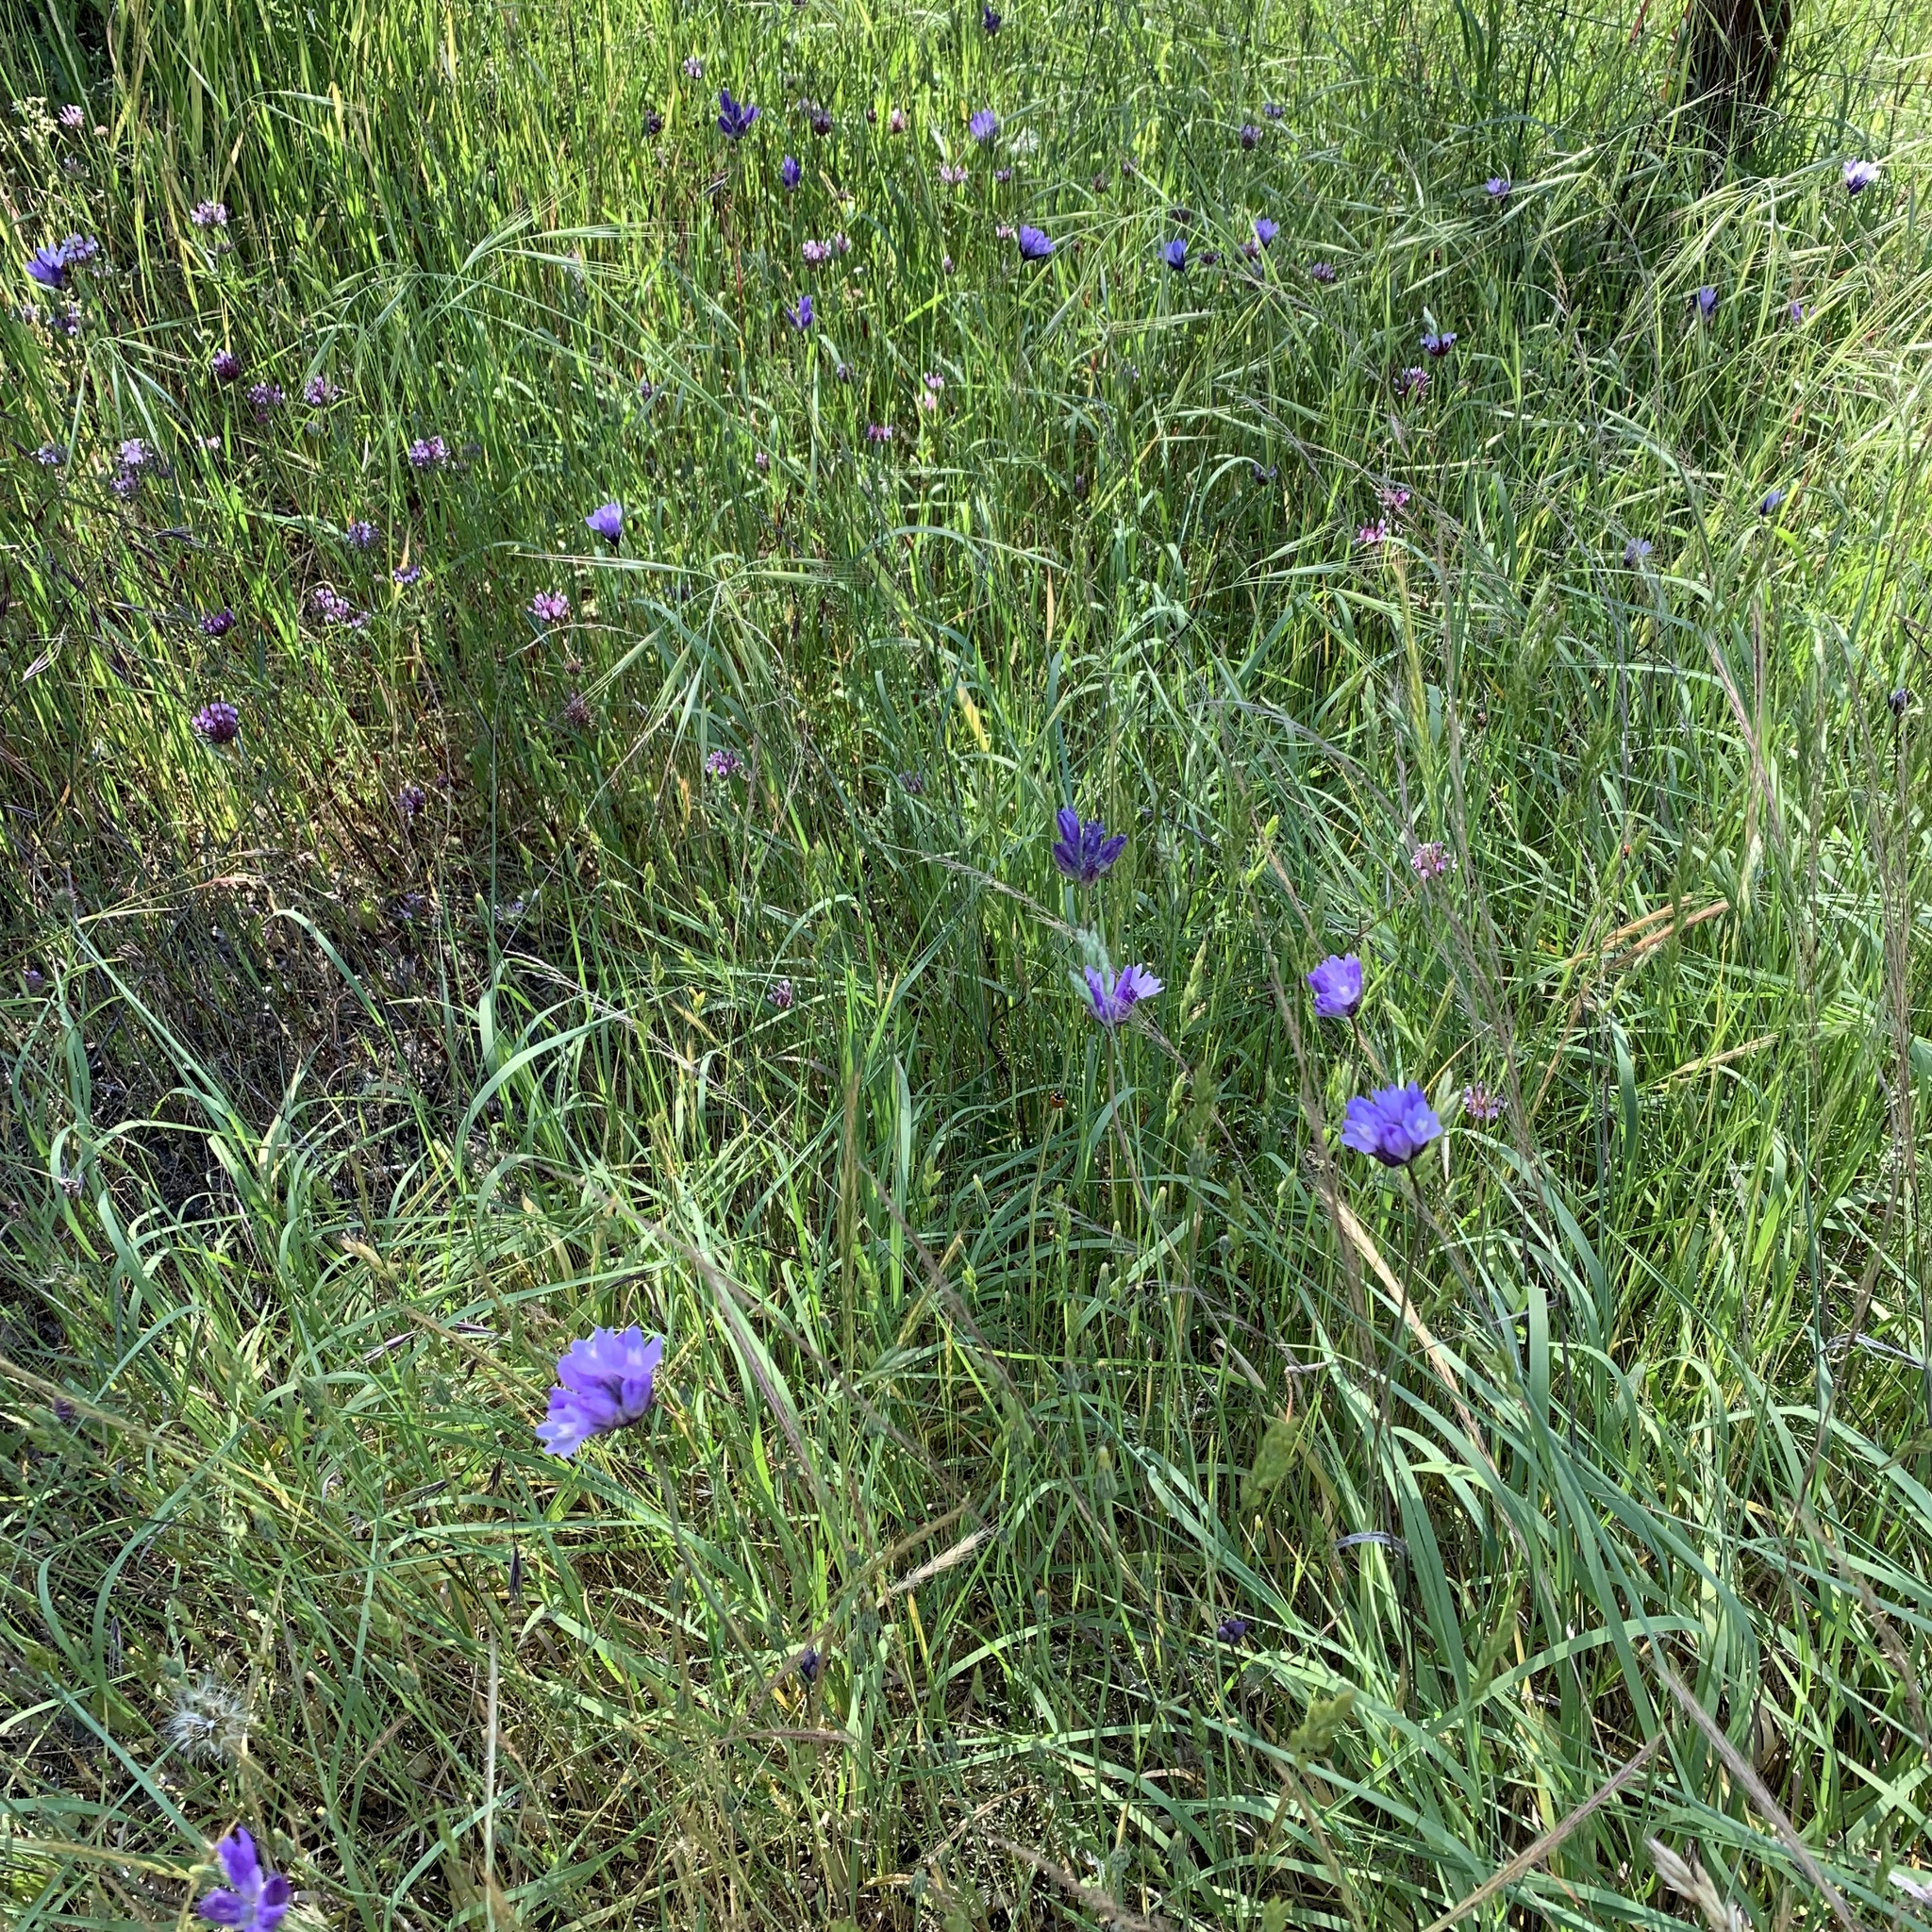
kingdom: Plantae
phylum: Tracheophyta
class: Liliopsida
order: Asparagales
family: Asparagaceae
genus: Dipterostemon
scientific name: Dipterostemon capitatus
